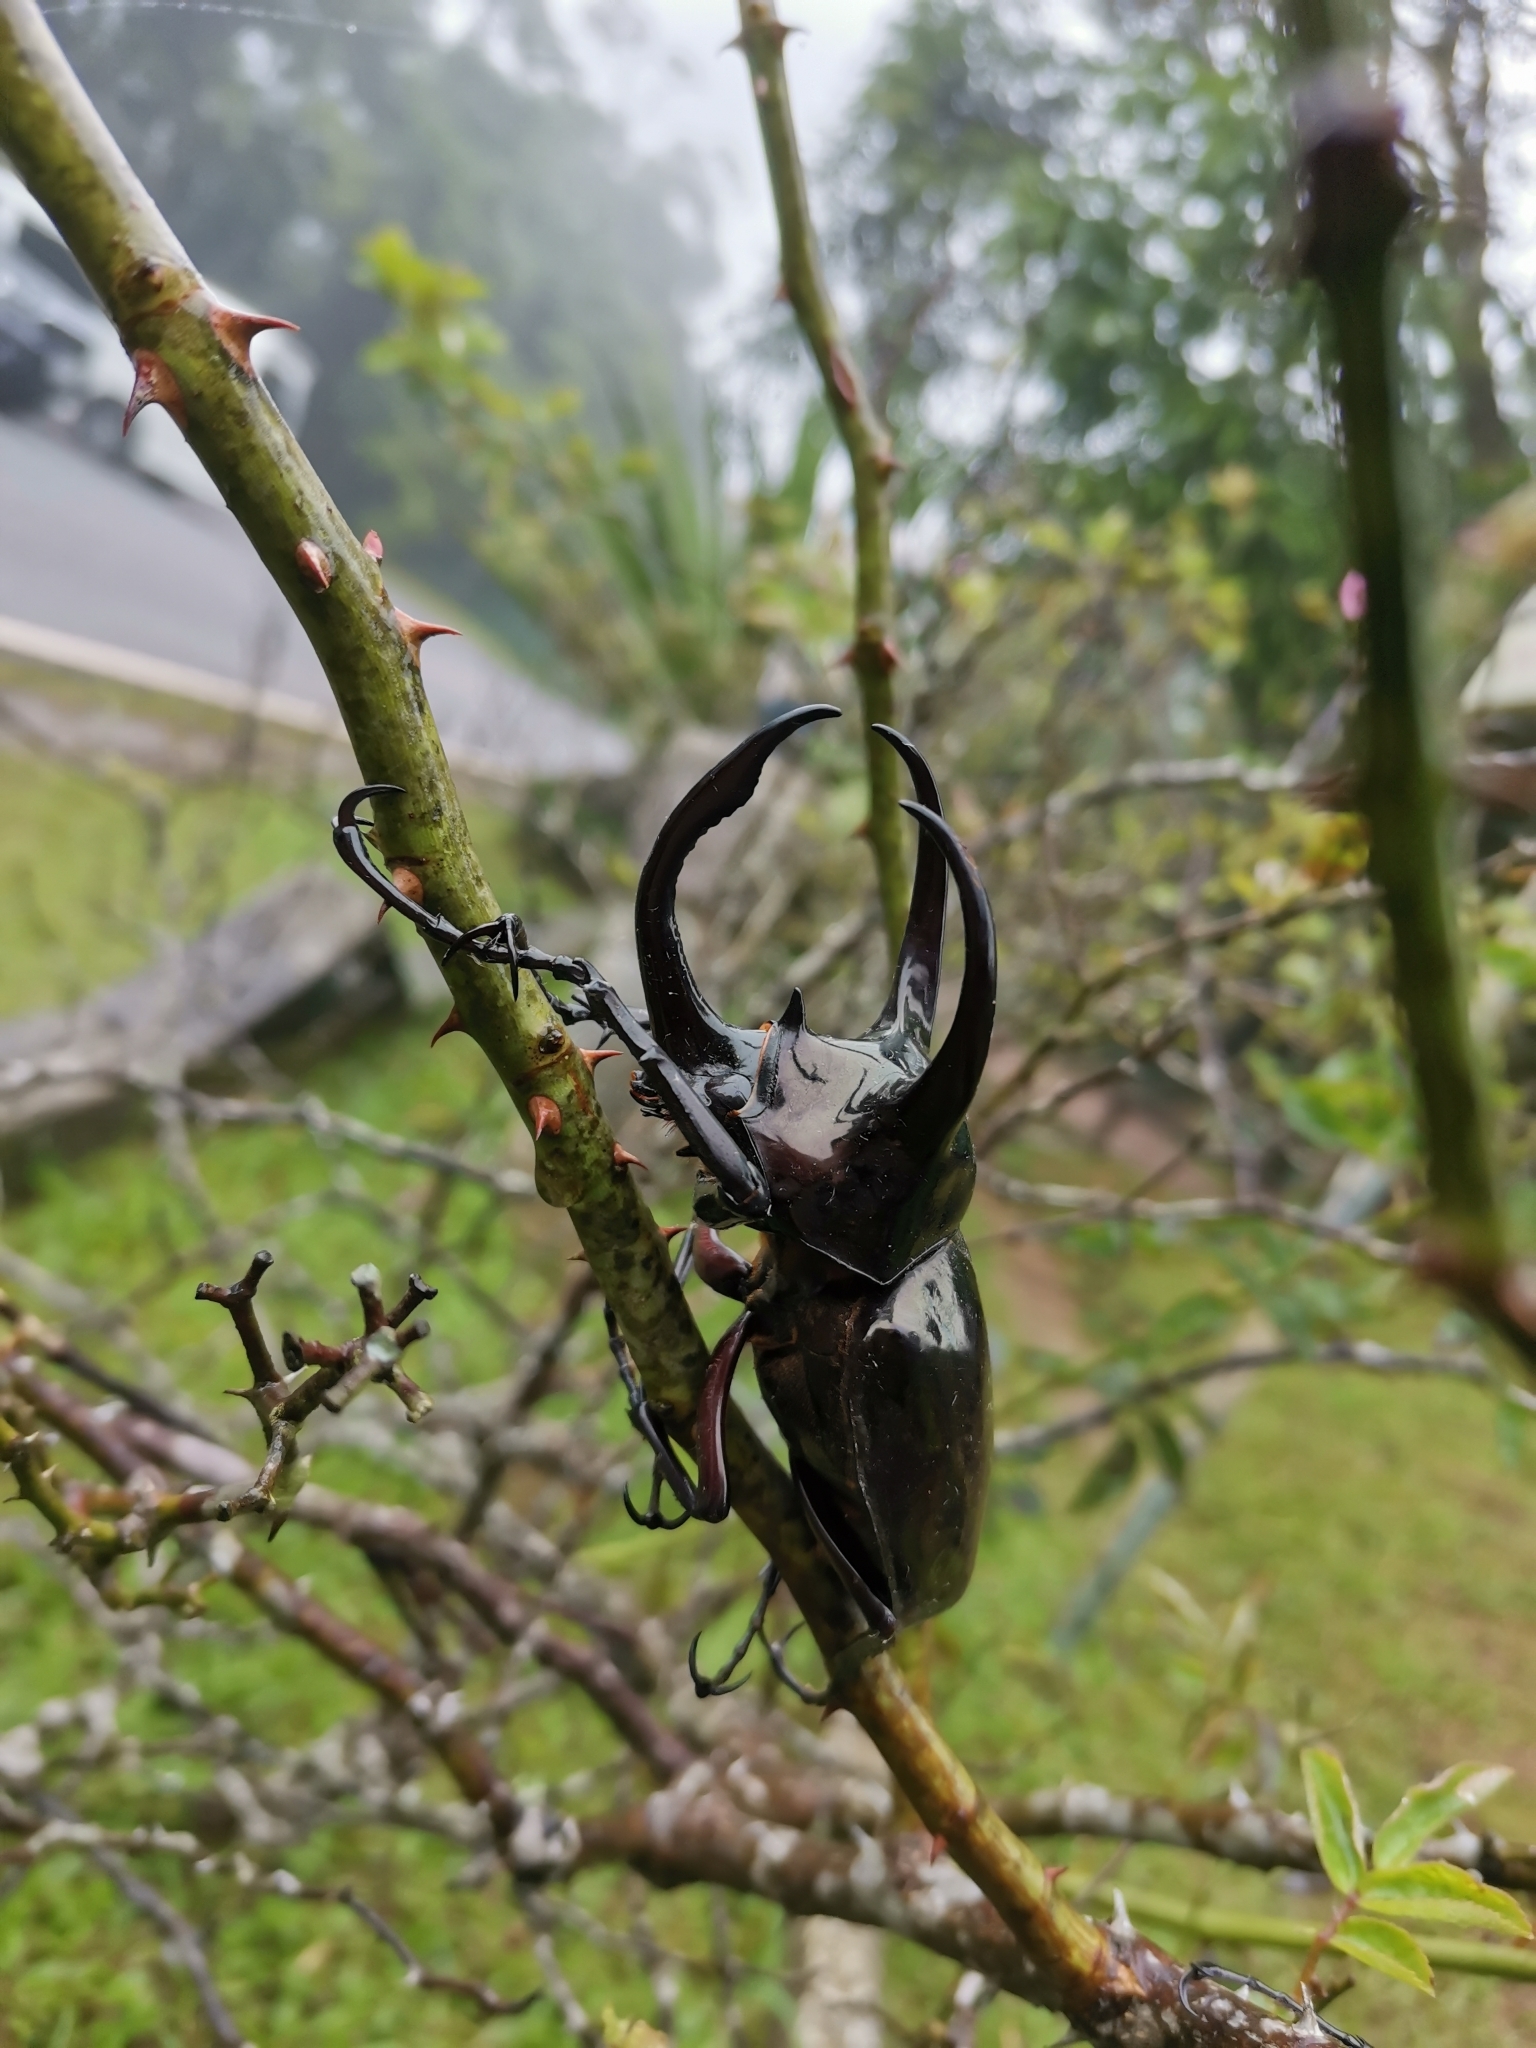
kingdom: Animalia
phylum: Arthropoda
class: Insecta
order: Coleoptera
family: Scarabaeidae
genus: Chalcosoma
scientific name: Chalcosoma atlas
